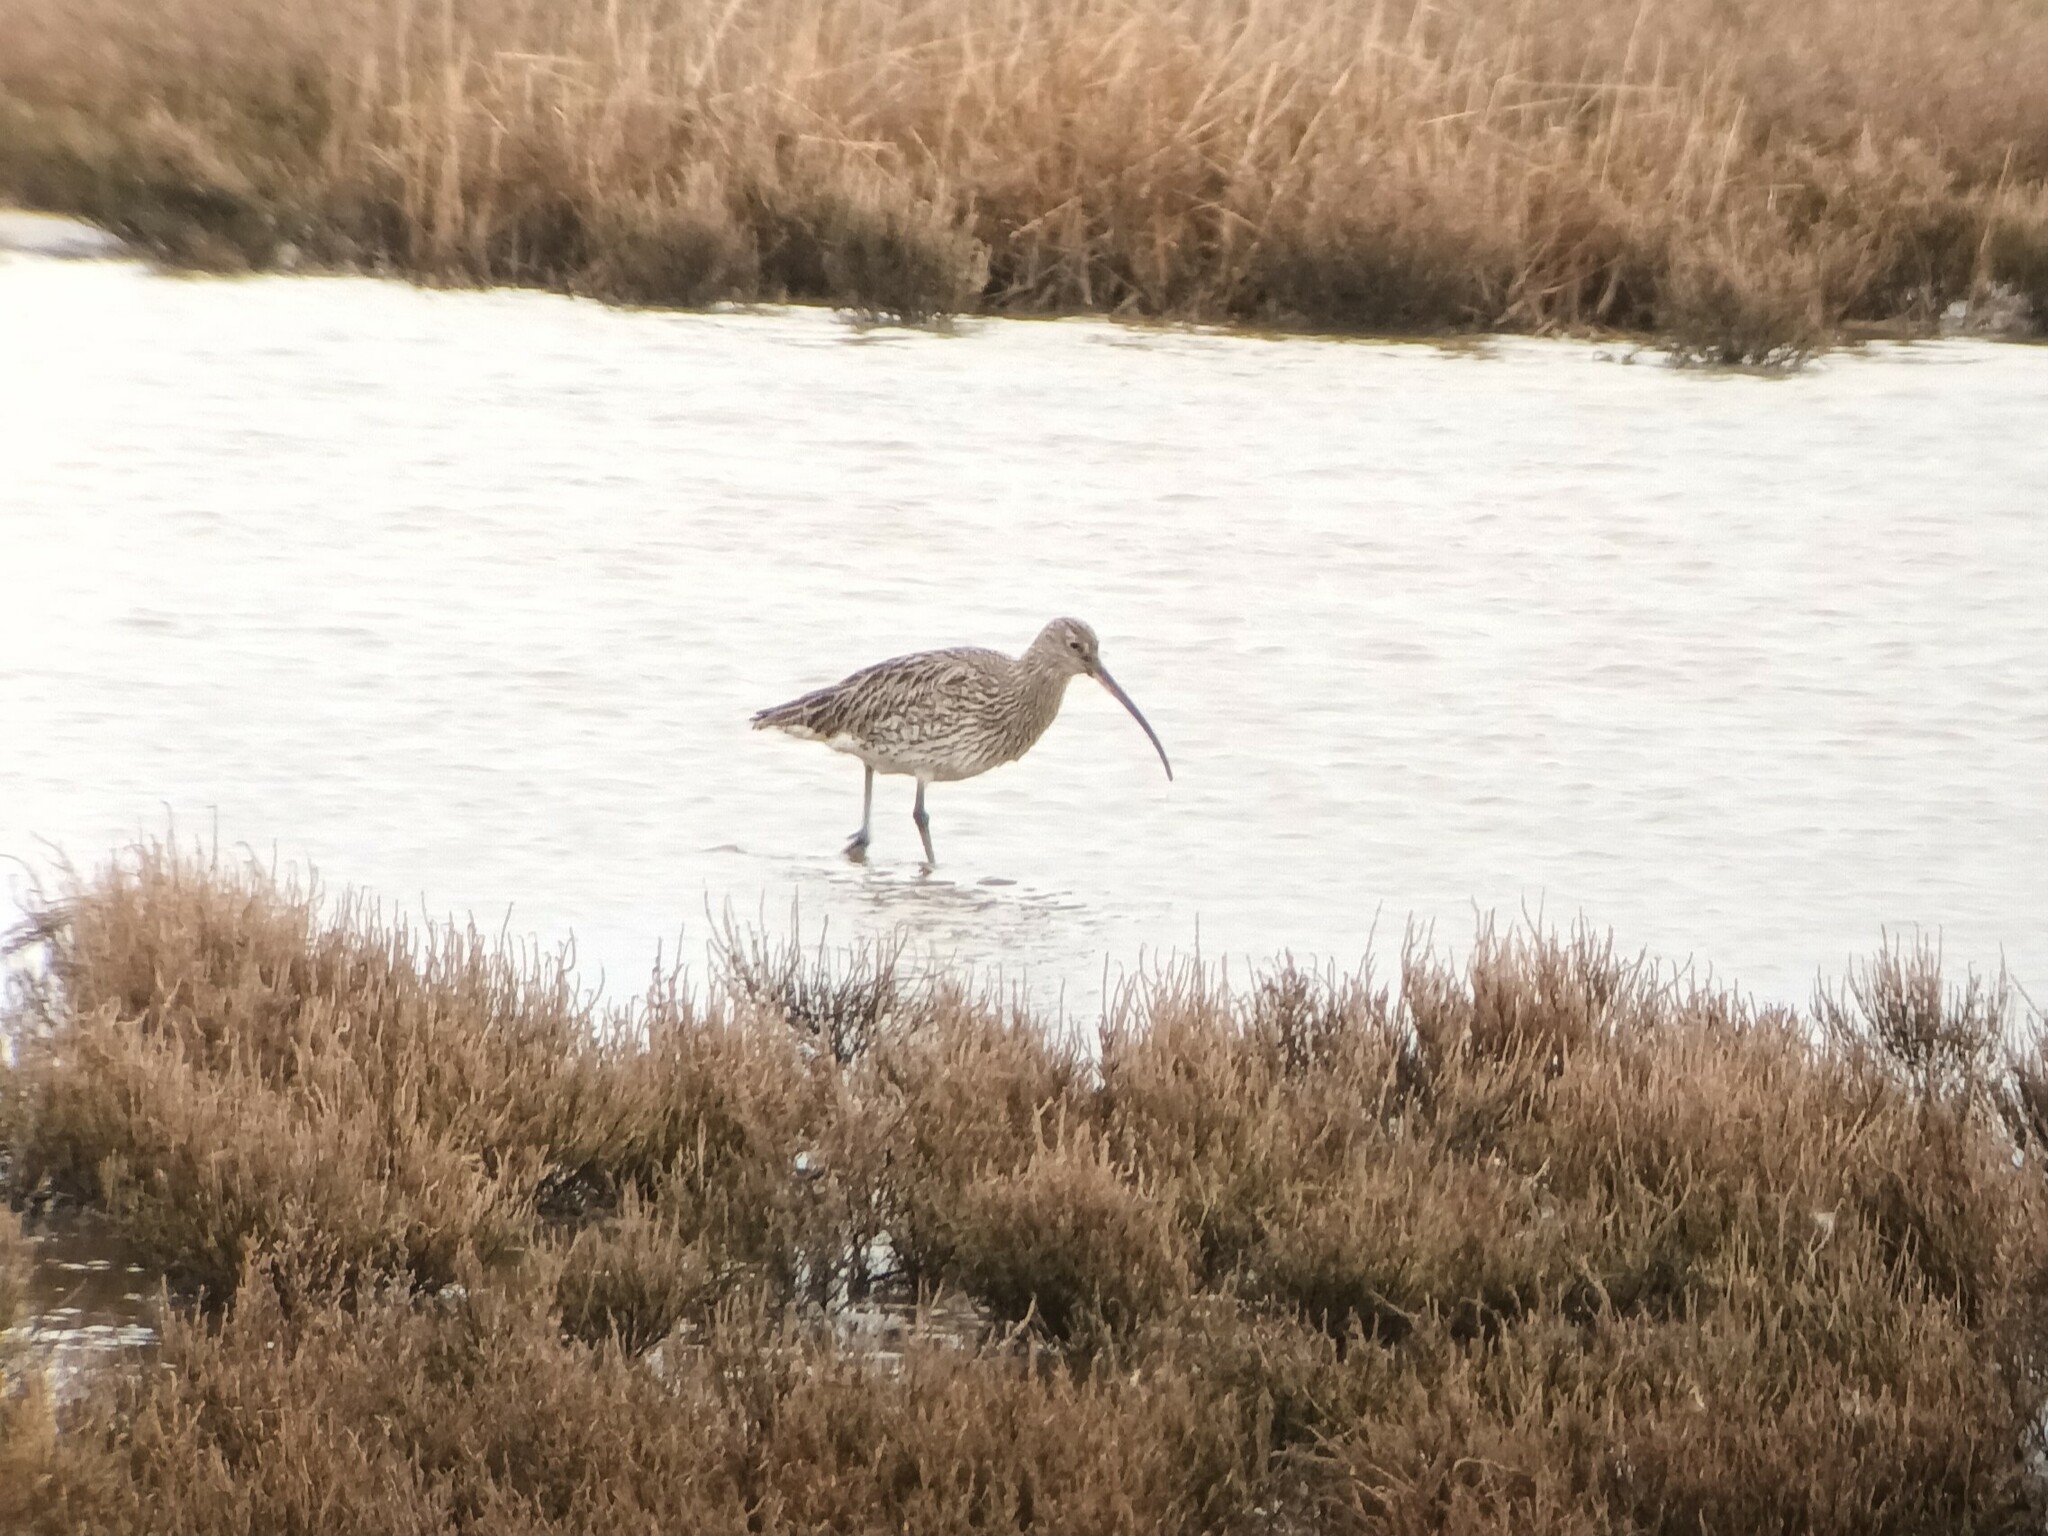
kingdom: Animalia
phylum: Chordata
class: Aves
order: Charadriiformes
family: Scolopacidae
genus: Numenius
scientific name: Numenius arquata
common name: Eurasian curlew
